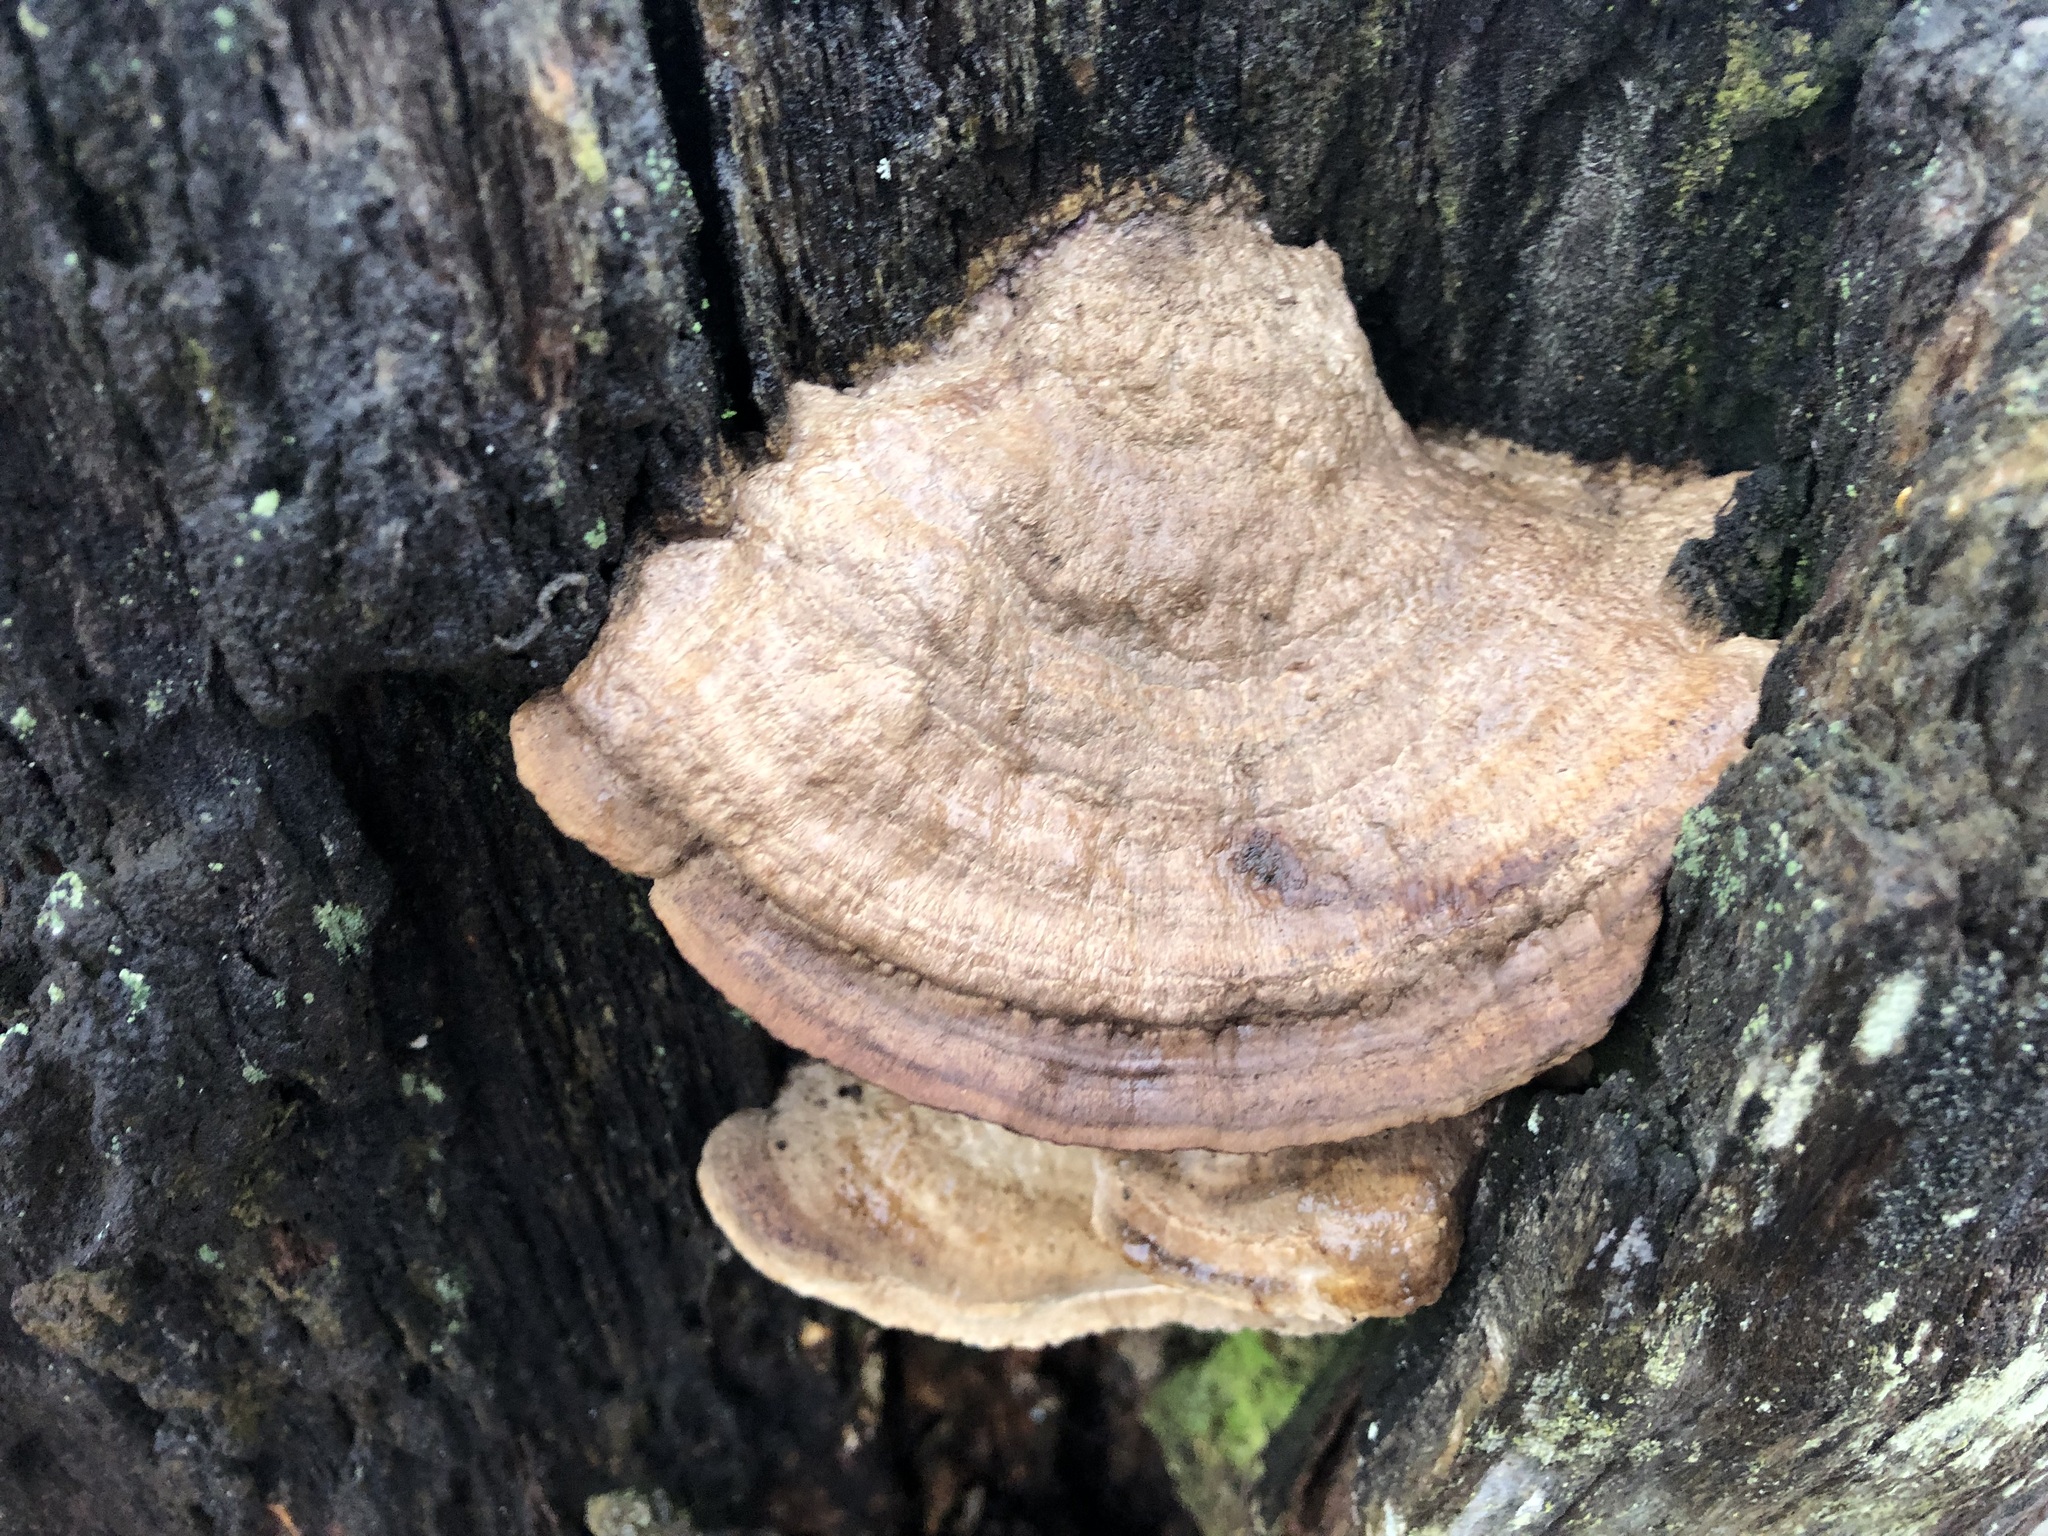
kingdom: Fungi
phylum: Basidiomycota
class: Agaricomycetes
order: Polyporales
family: Fomitopsidaceae
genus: Fomitopsis
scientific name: Fomitopsis
